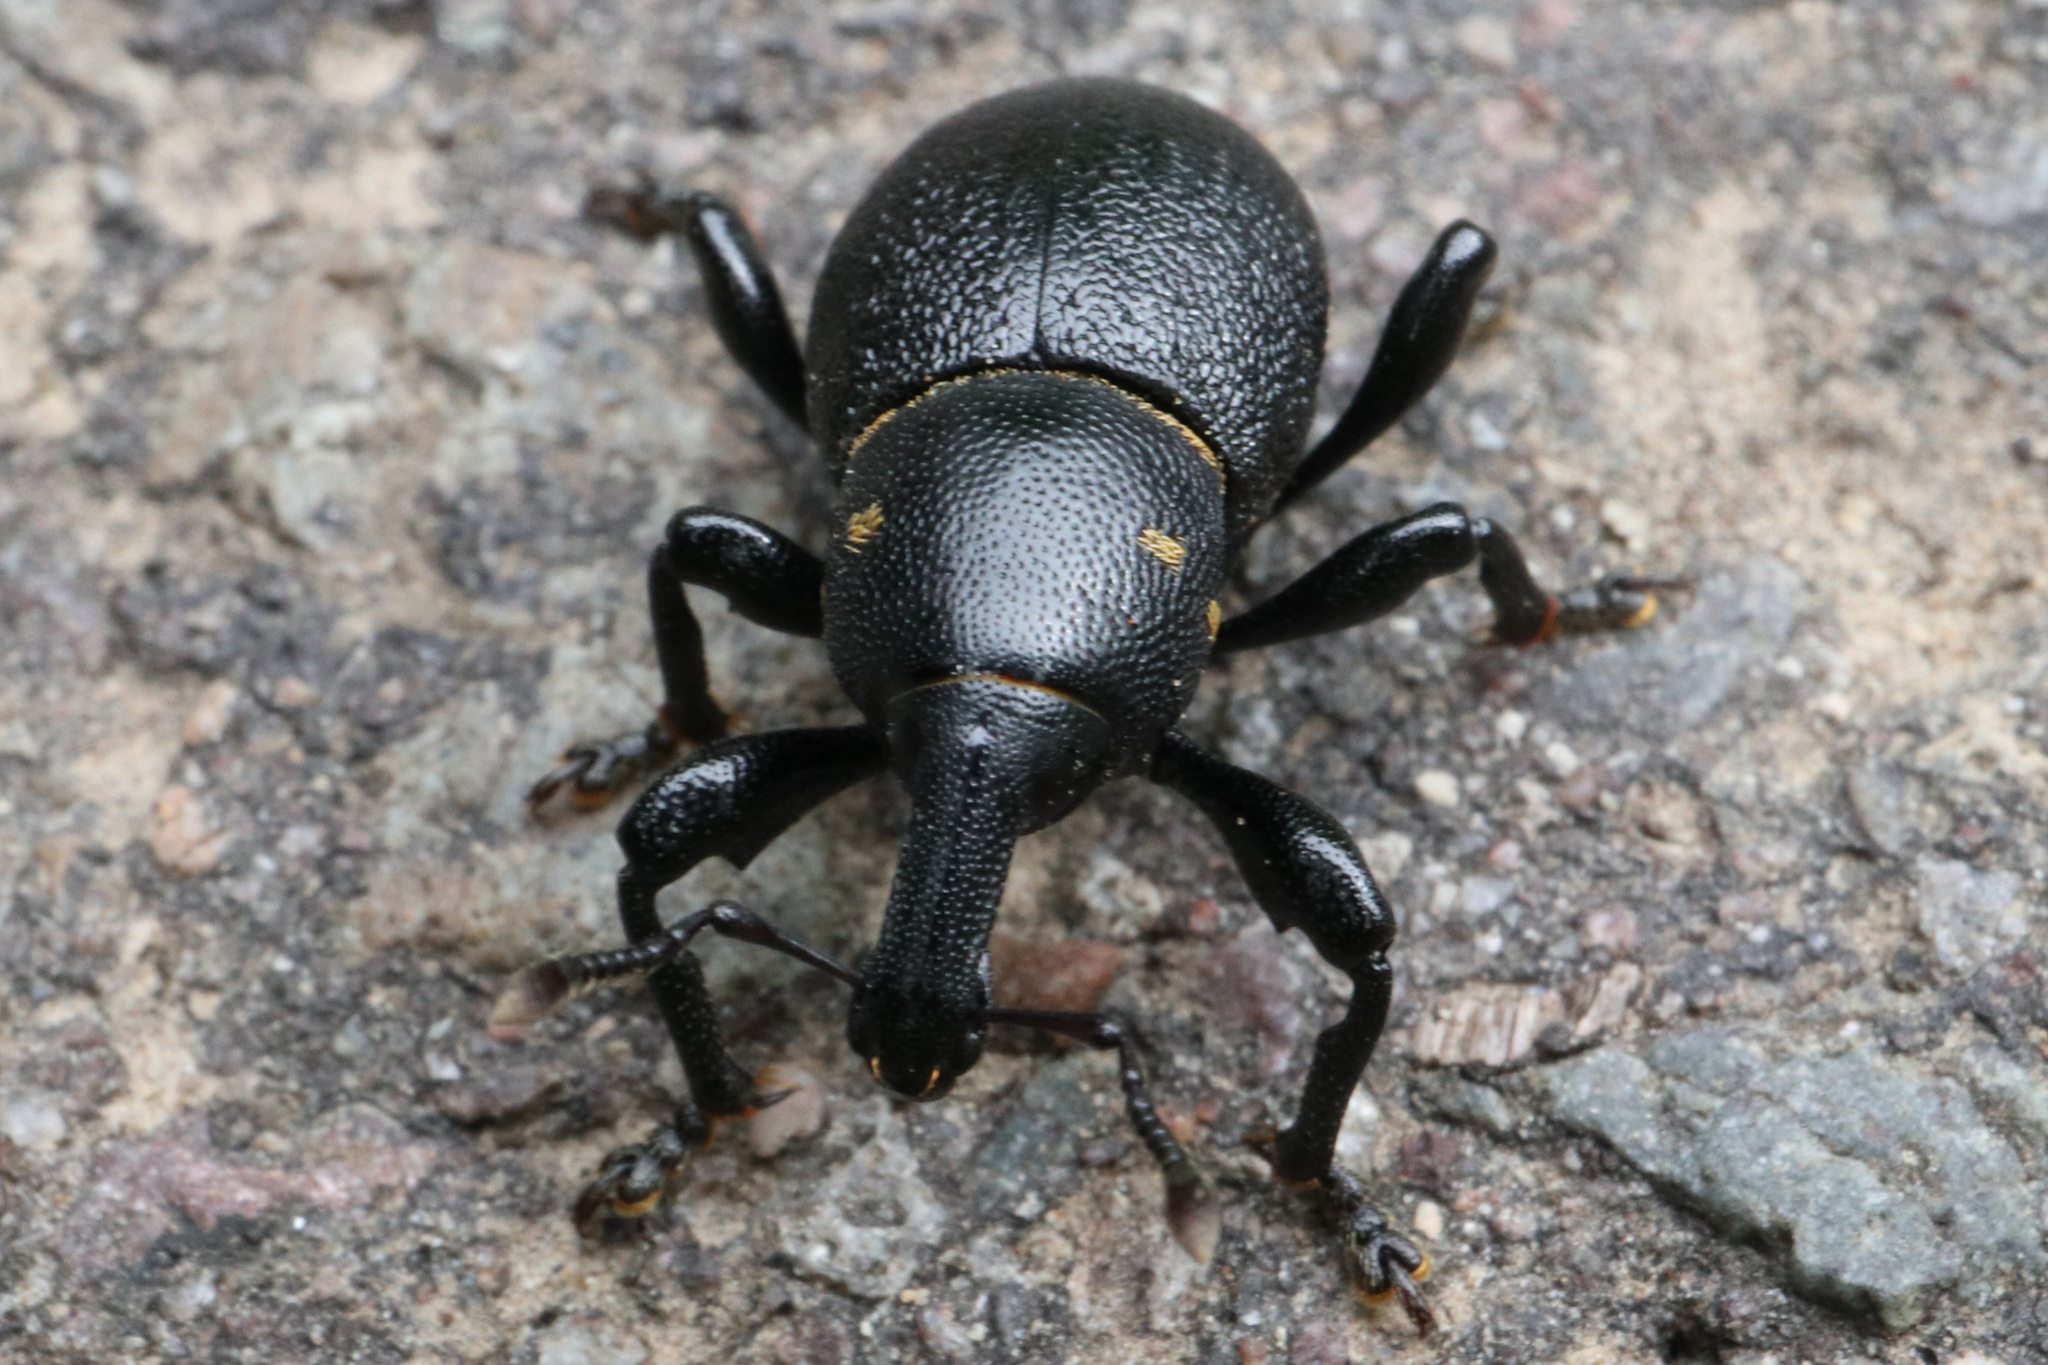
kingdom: Animalia
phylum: Arthropoda
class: Insecta
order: Coleoptera
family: Curculionidae
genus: Liparus
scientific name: Liparus coronatus
